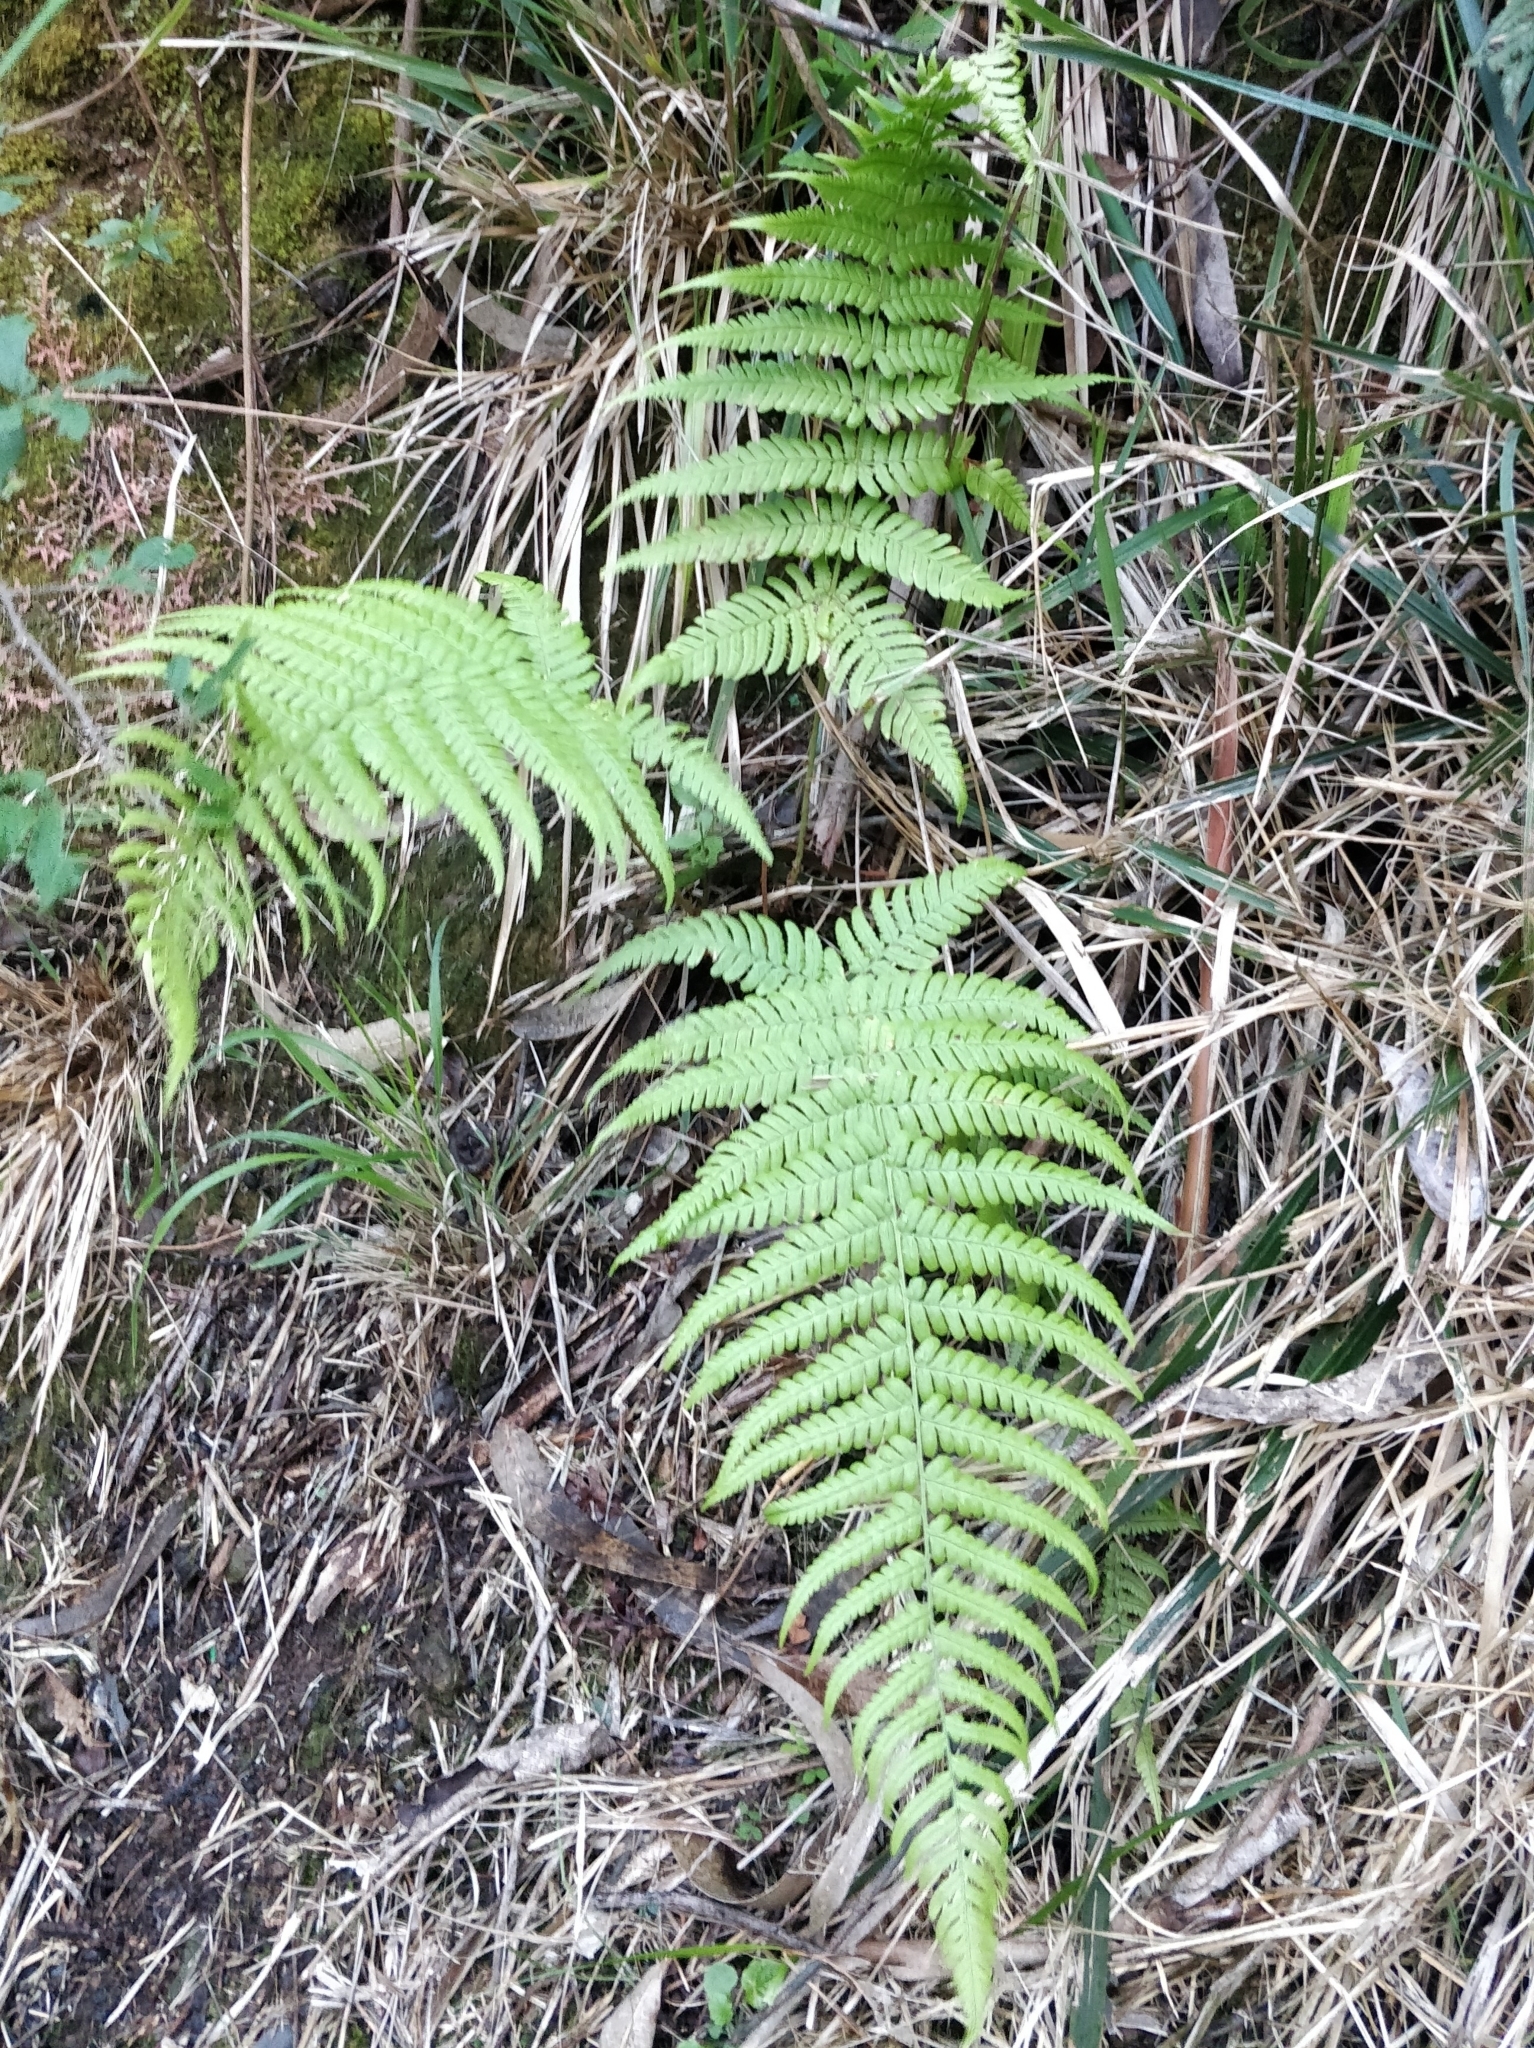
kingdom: Plantae
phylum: Tracheophyta
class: Polypodiopsida
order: Polypodiales
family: Thelypteridaceae
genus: Christella
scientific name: Christella dentata
